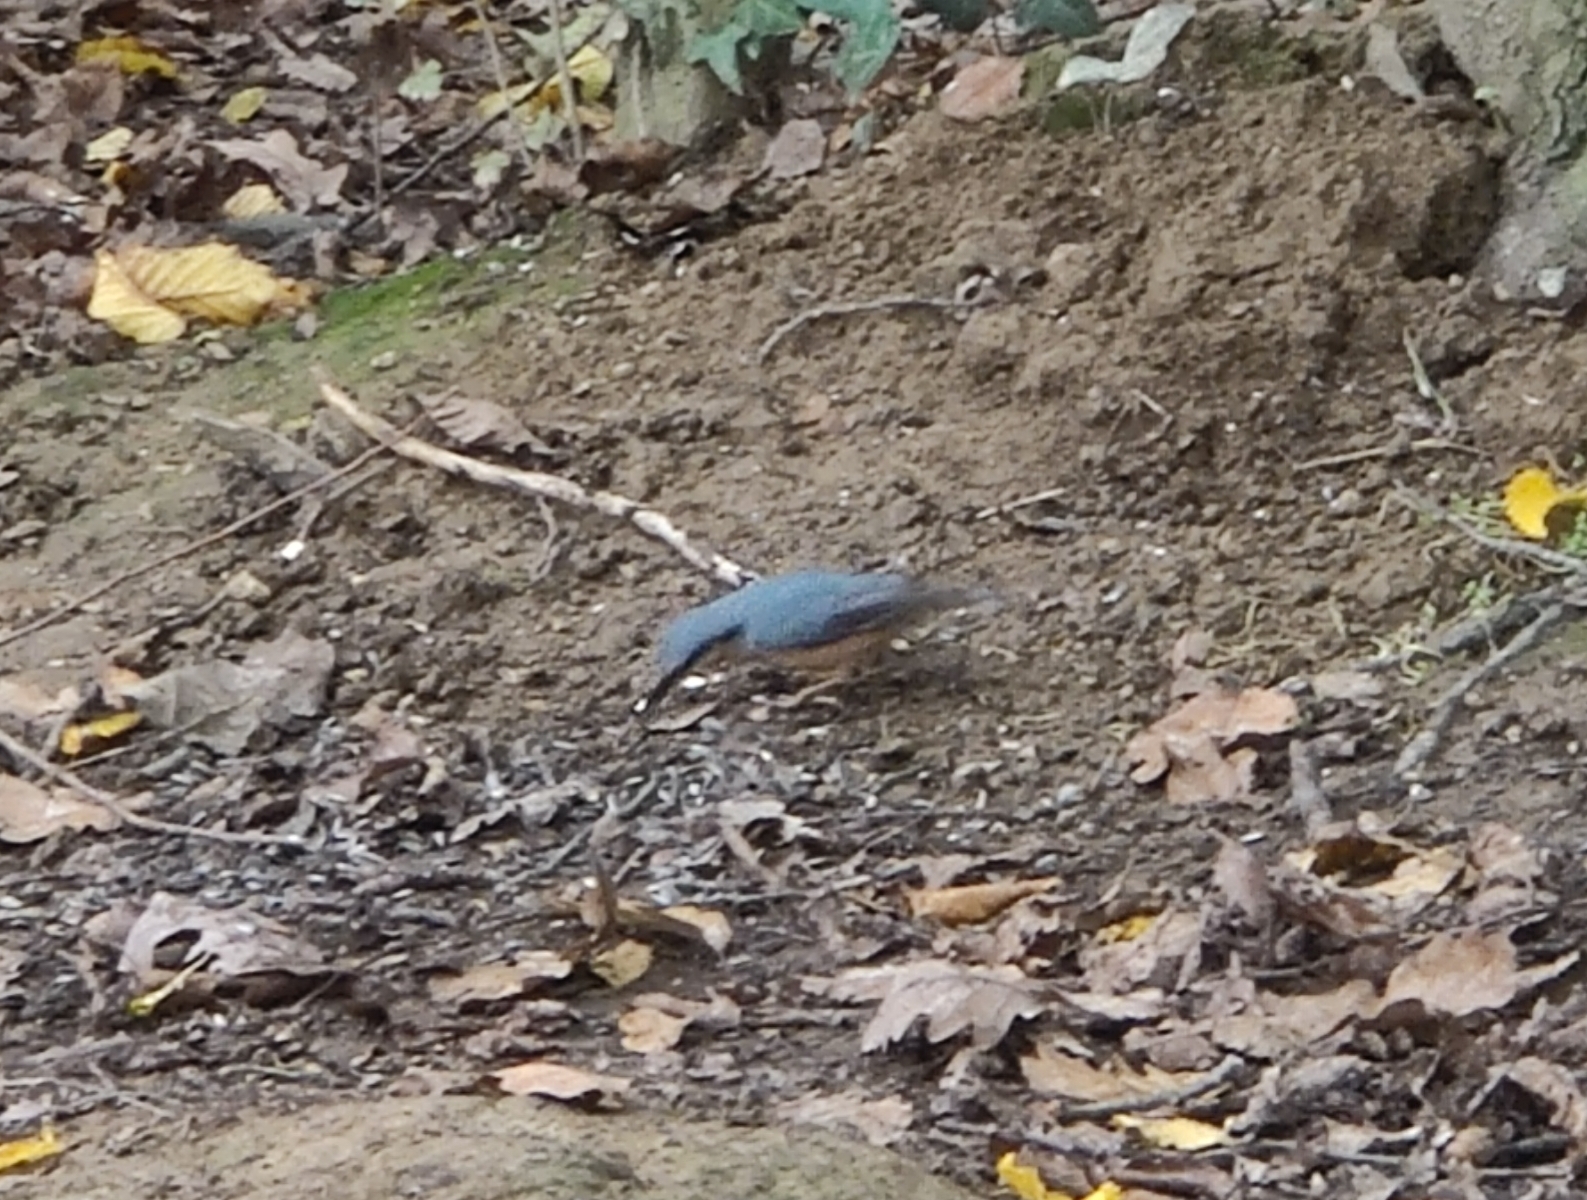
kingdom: Animalia
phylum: Chordata
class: Aves
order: Passeriformes
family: Sittidae
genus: Sitta
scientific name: Sitta europaea
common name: Eurasian nuthatch
